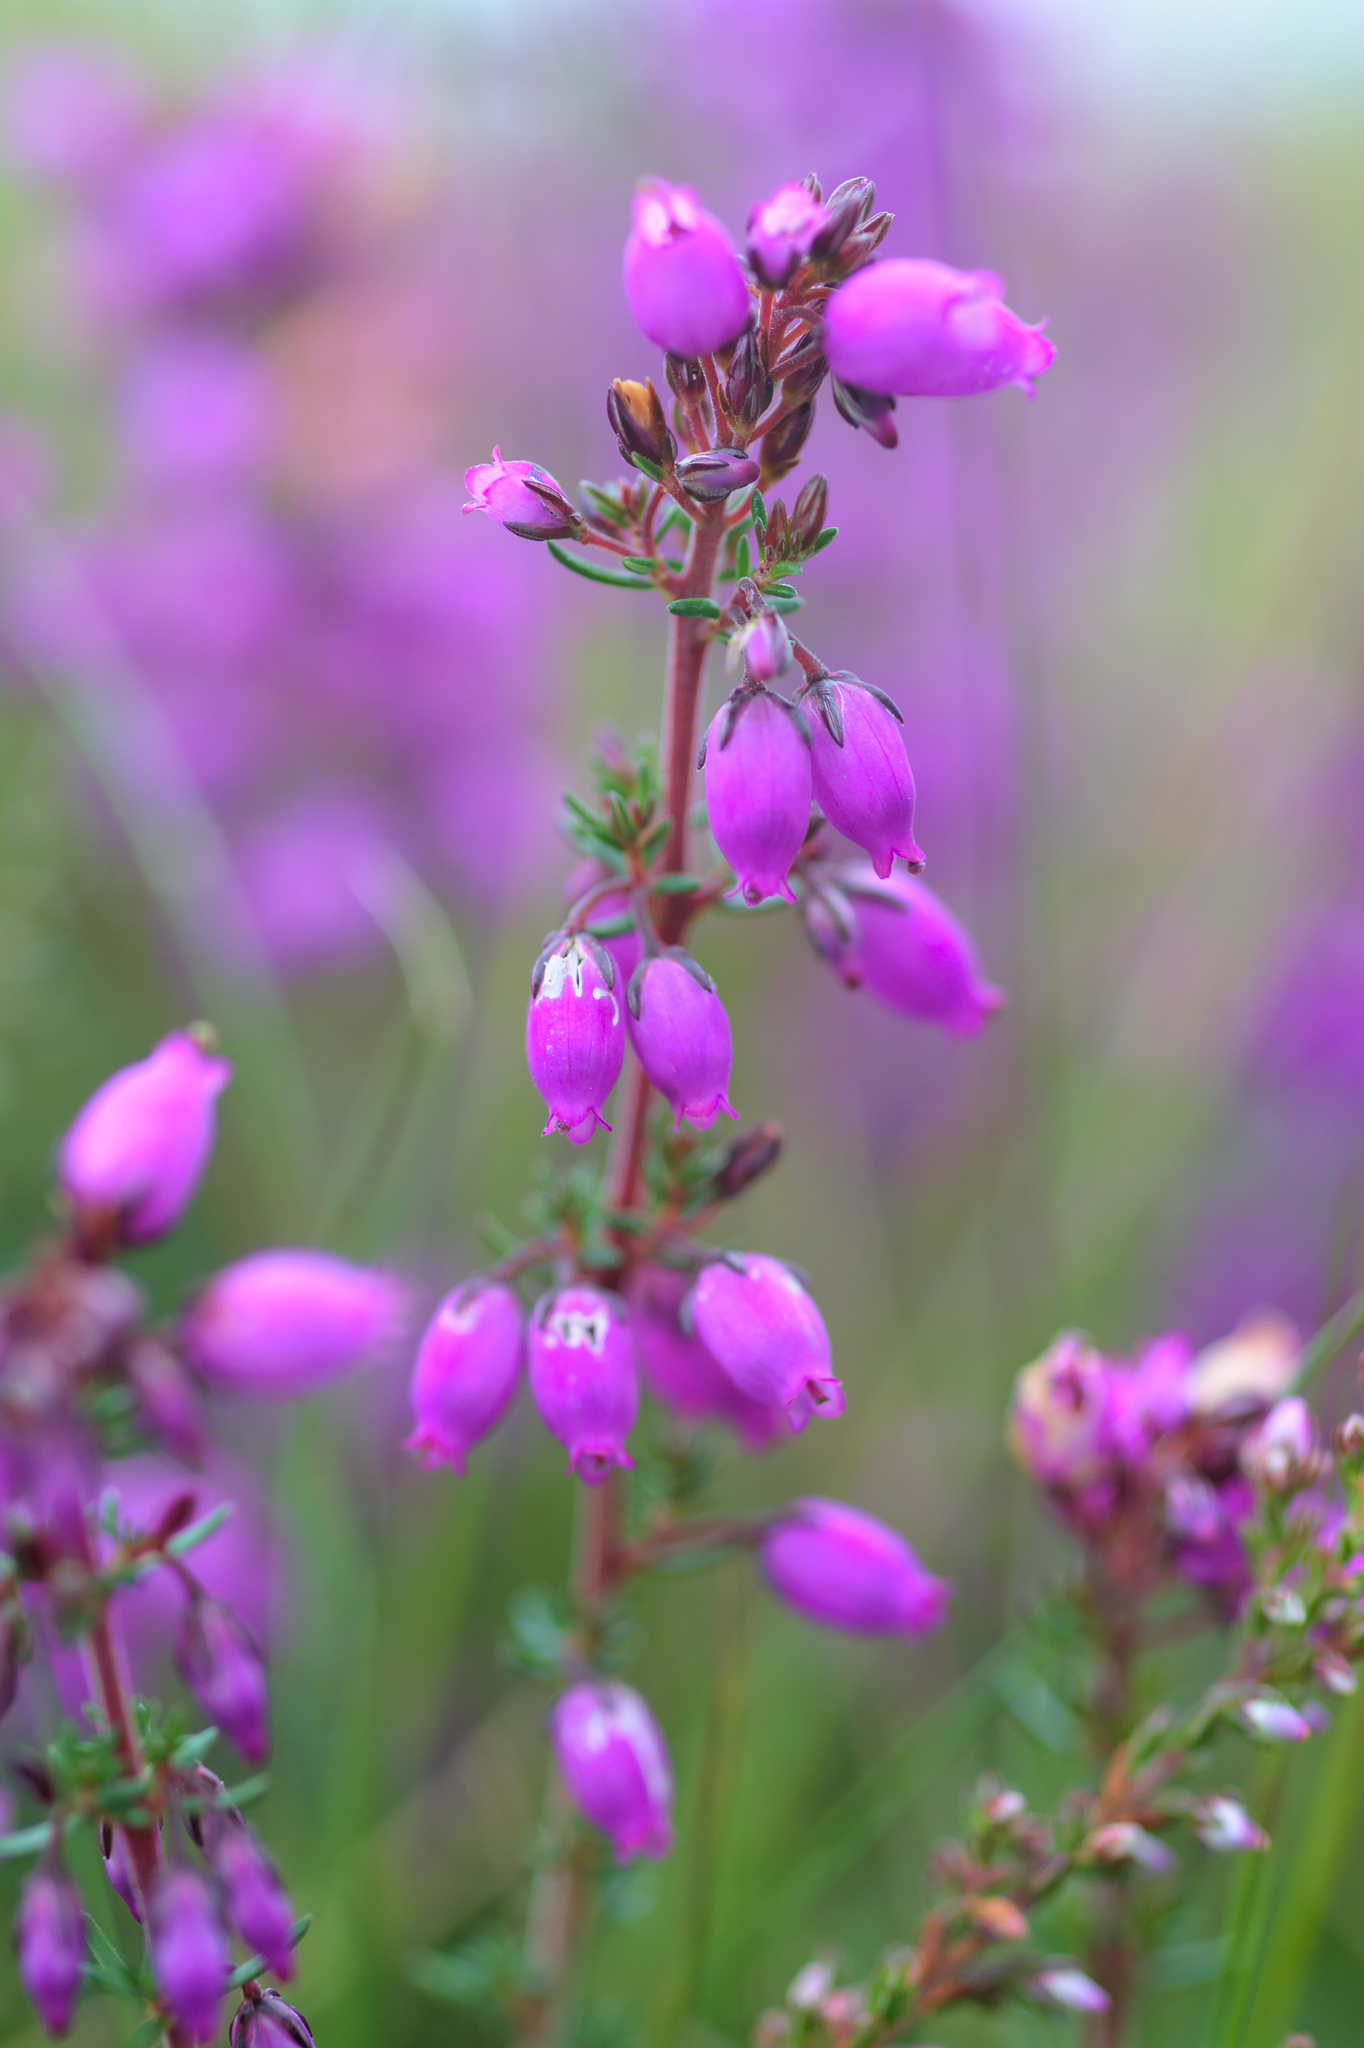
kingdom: Plantae
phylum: Tracheophyta
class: Magnoliopsida
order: Ericales
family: Ericaceae
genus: Erica
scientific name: Erica cinerea
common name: Bell heather
